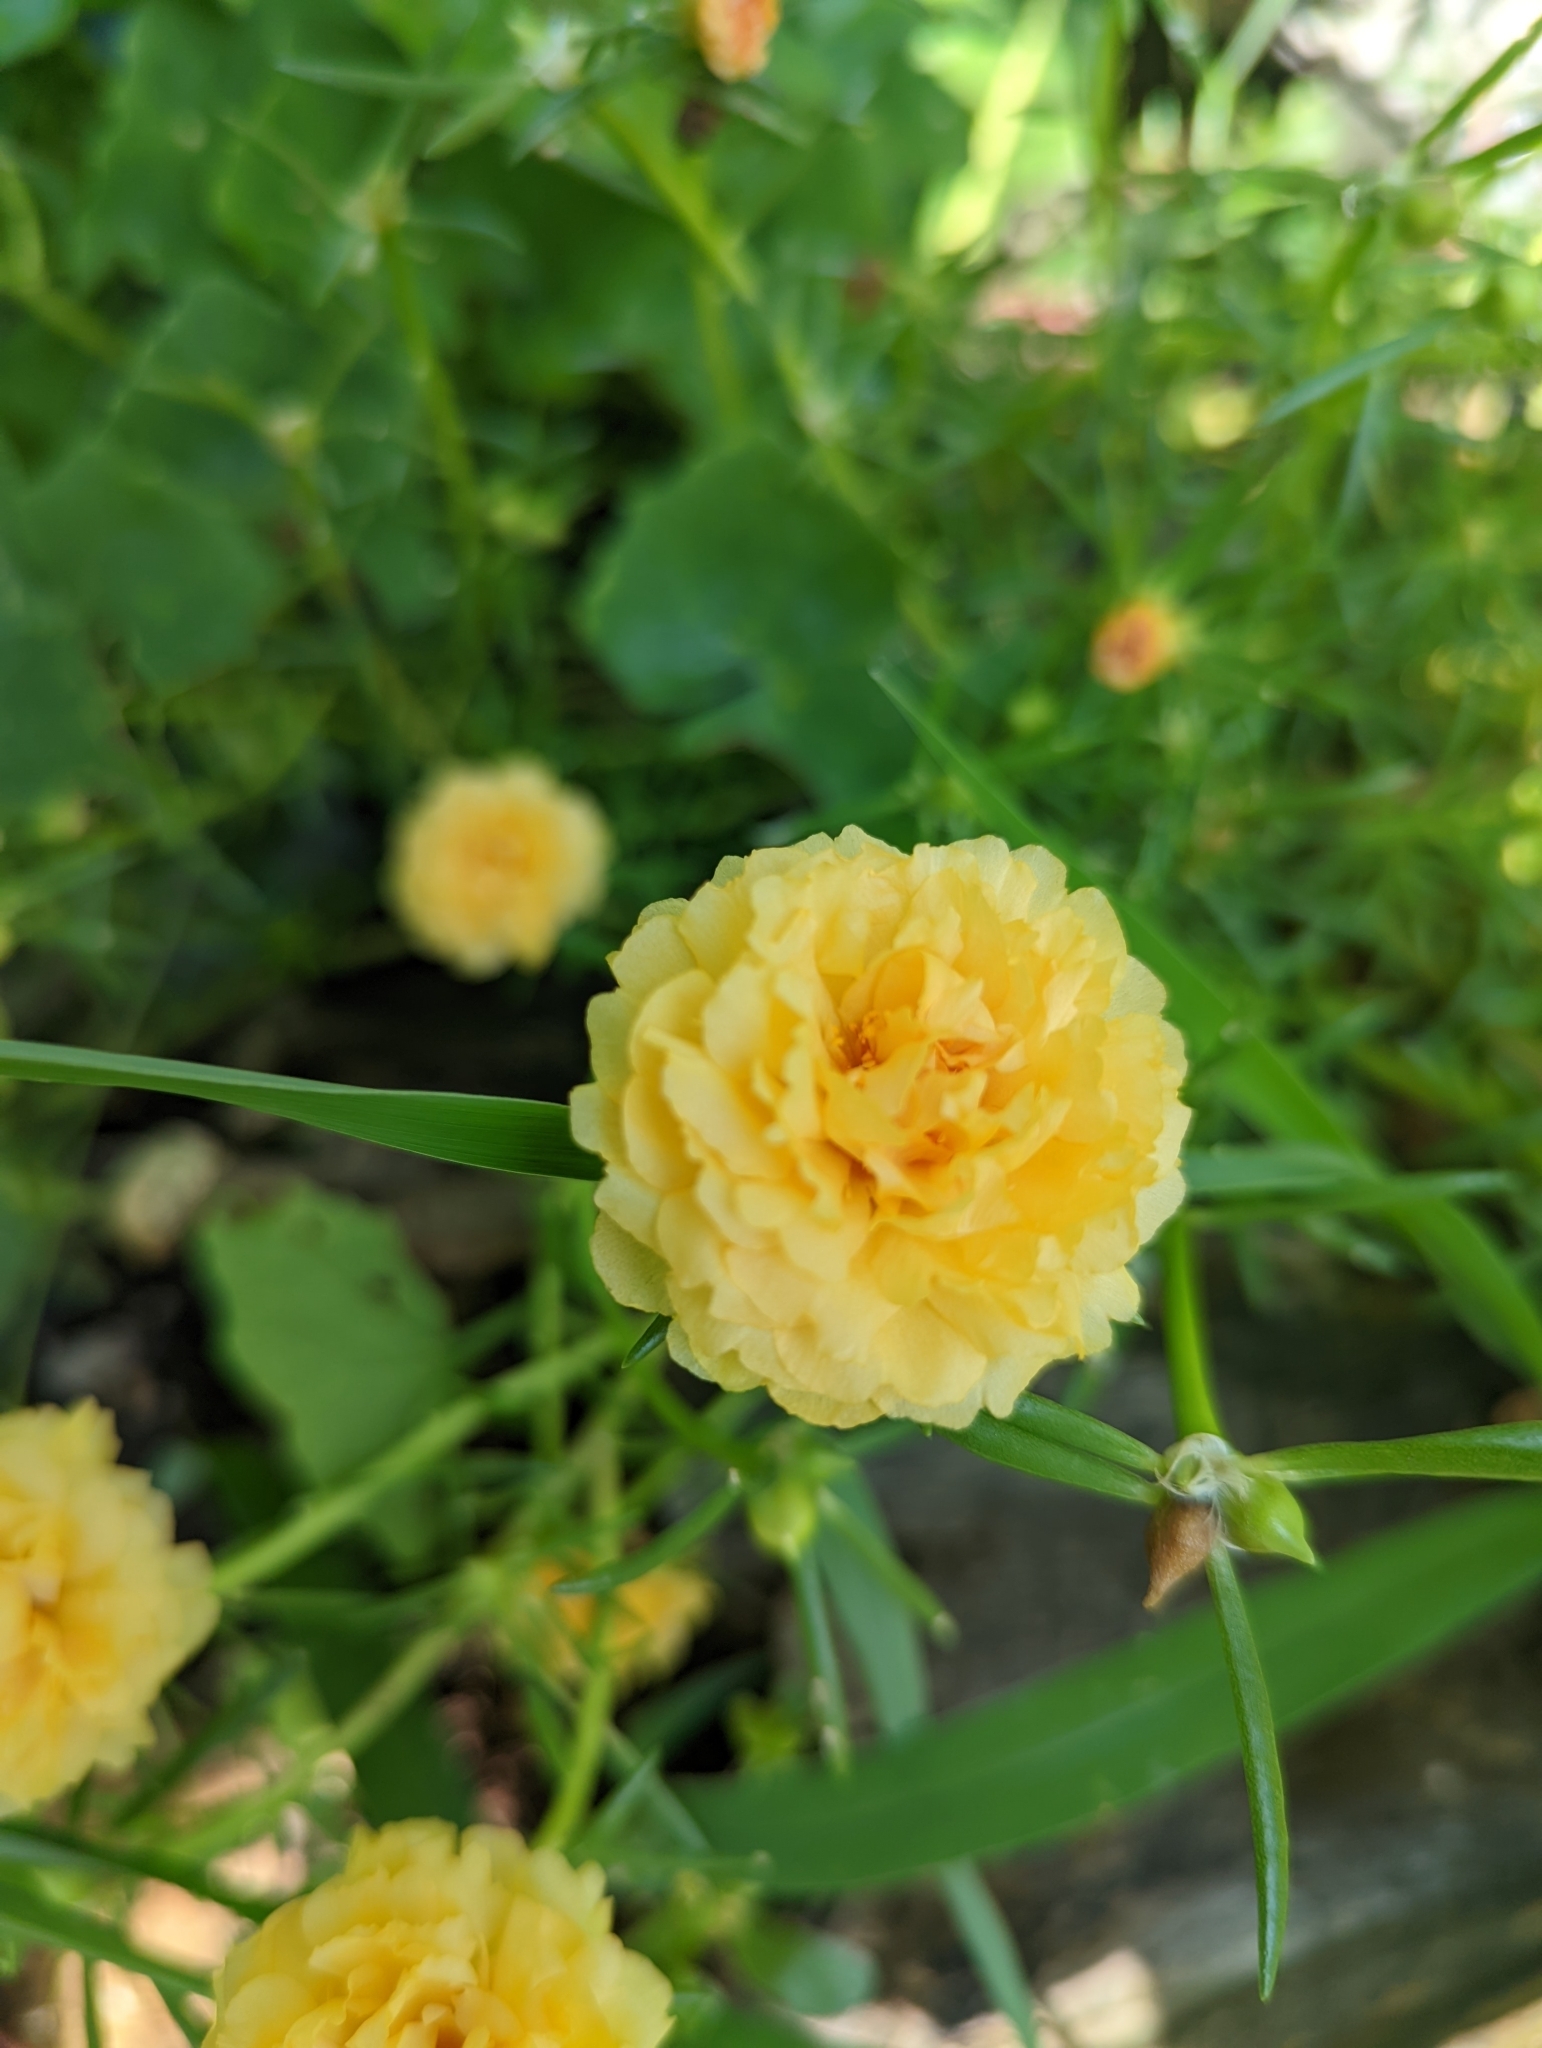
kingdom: Plantae
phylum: Tracheophyta
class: Magnoliopsida
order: Caryophyllales
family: Portulacaceae
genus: Portulaca
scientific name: Portulaca grandiflora
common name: Moss-rose
